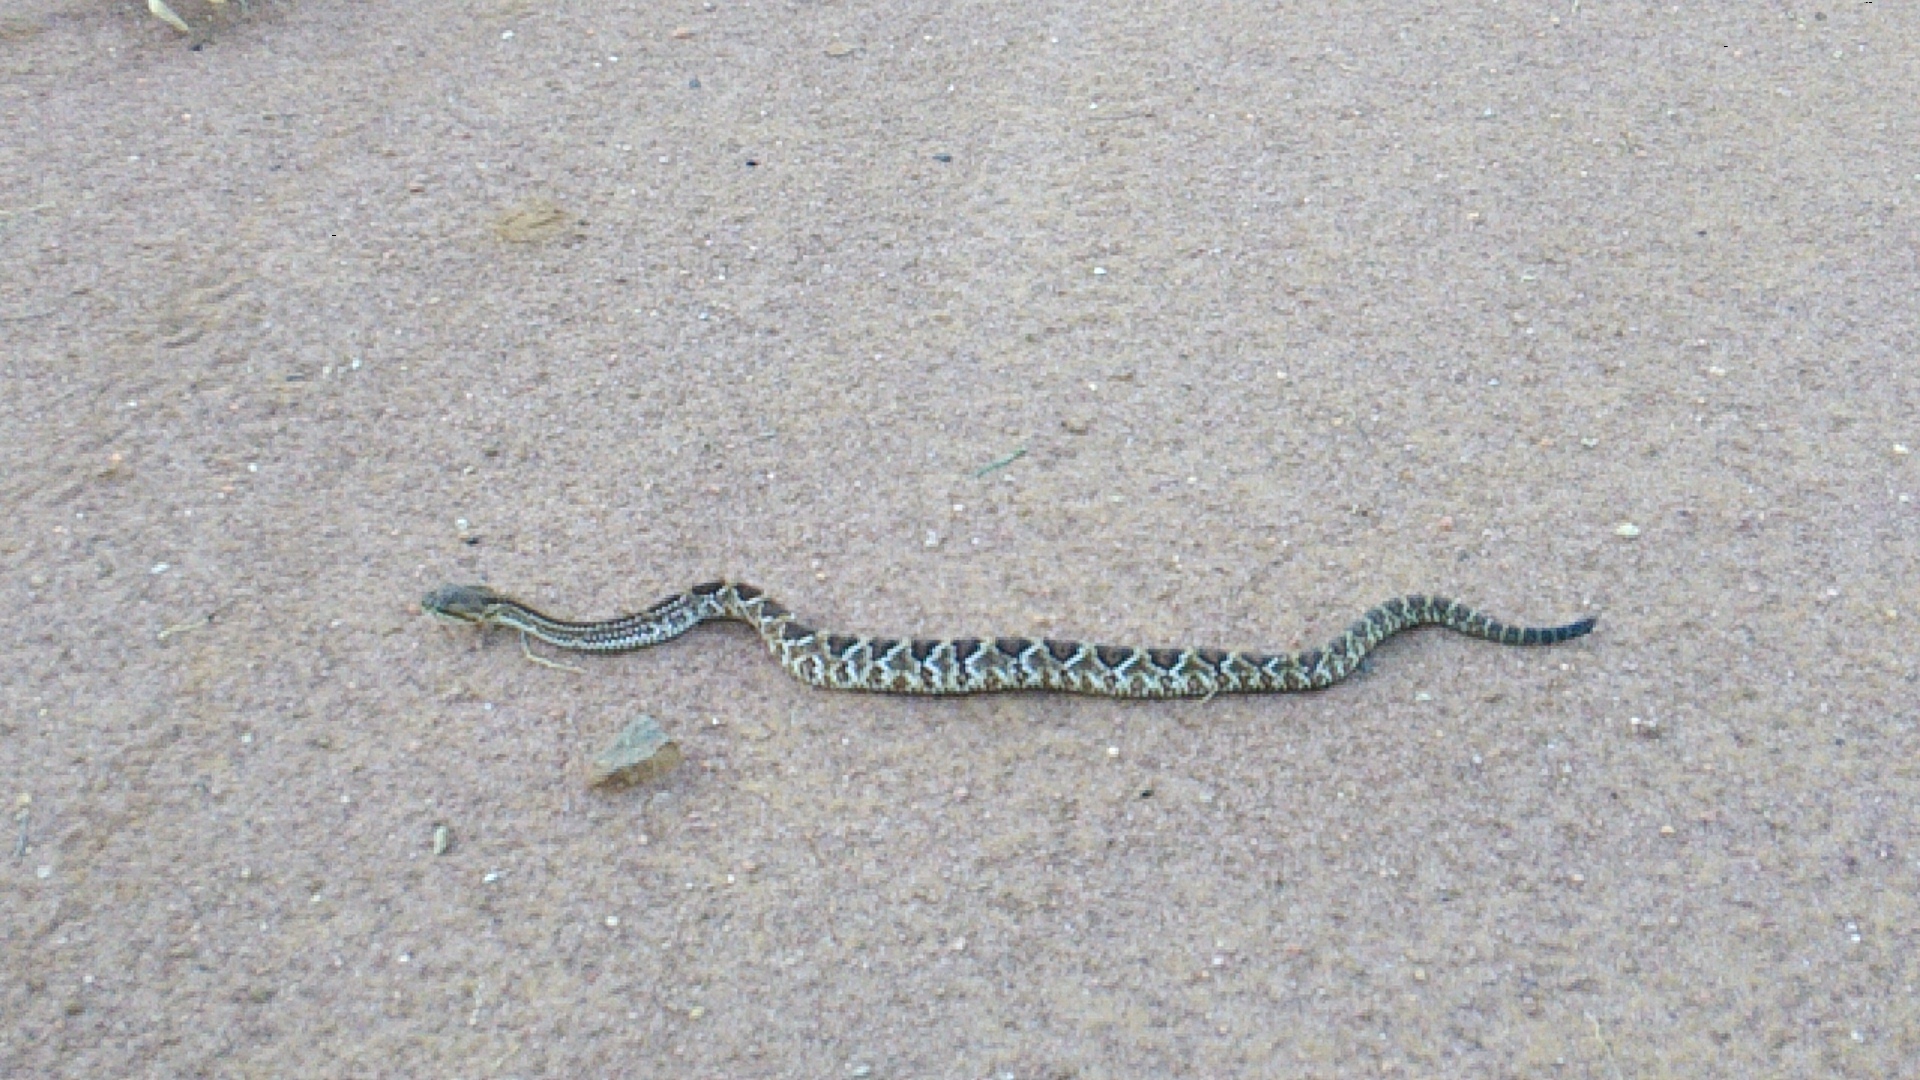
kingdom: Animalia
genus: Crotalus
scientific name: Crotalus durissus
